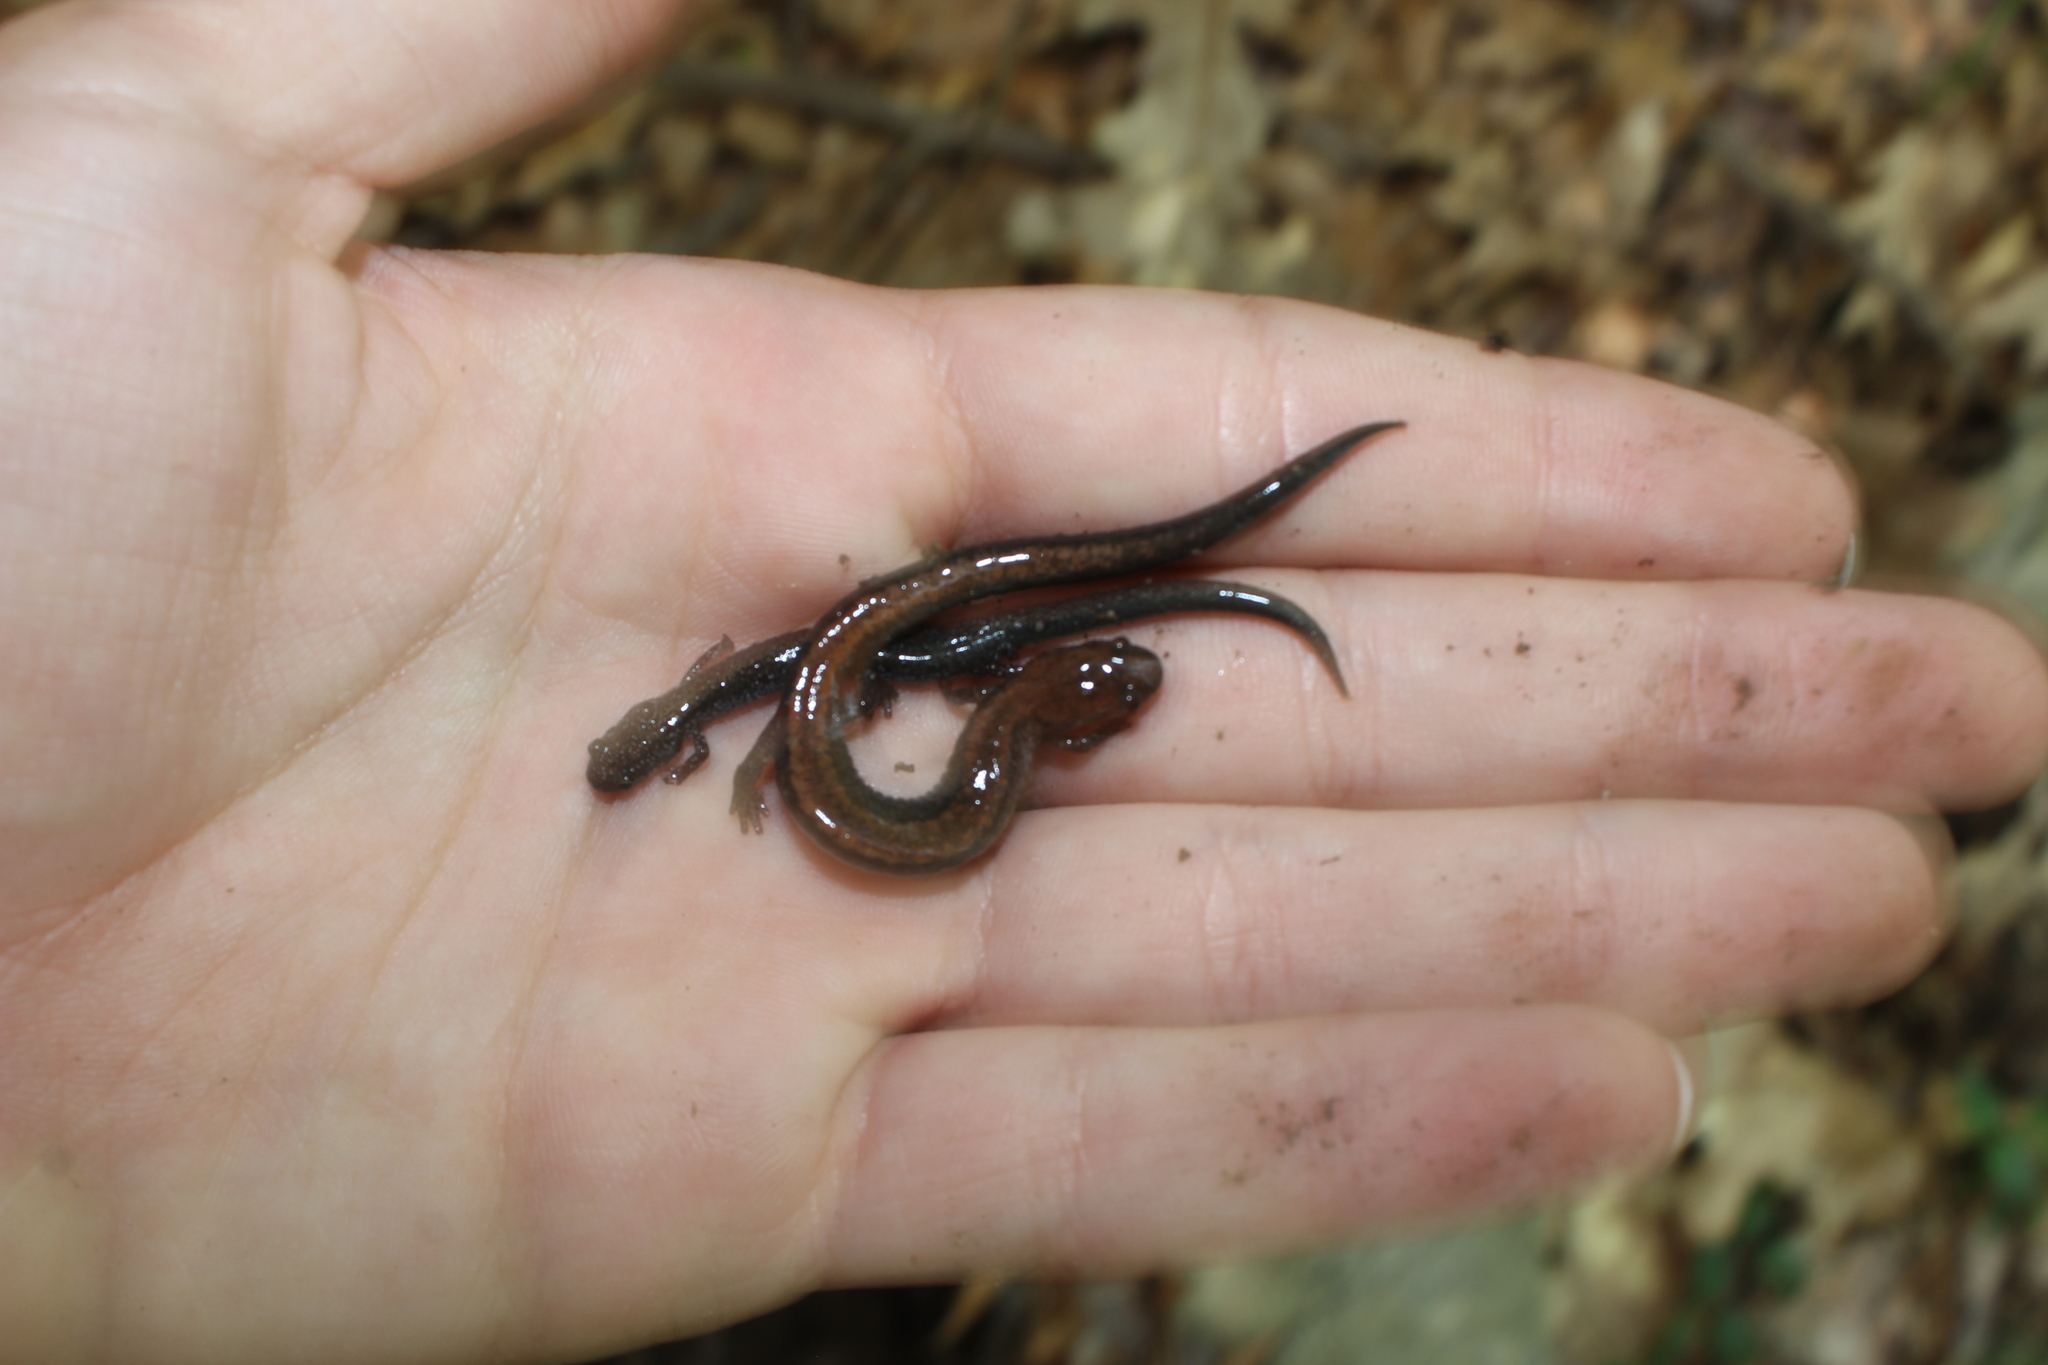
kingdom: Animalia
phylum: Chordata
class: Amphibia
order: Caudata
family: Plethodontidae
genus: Plethodon
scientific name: Plethodon cinereus
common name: Redback salamander
